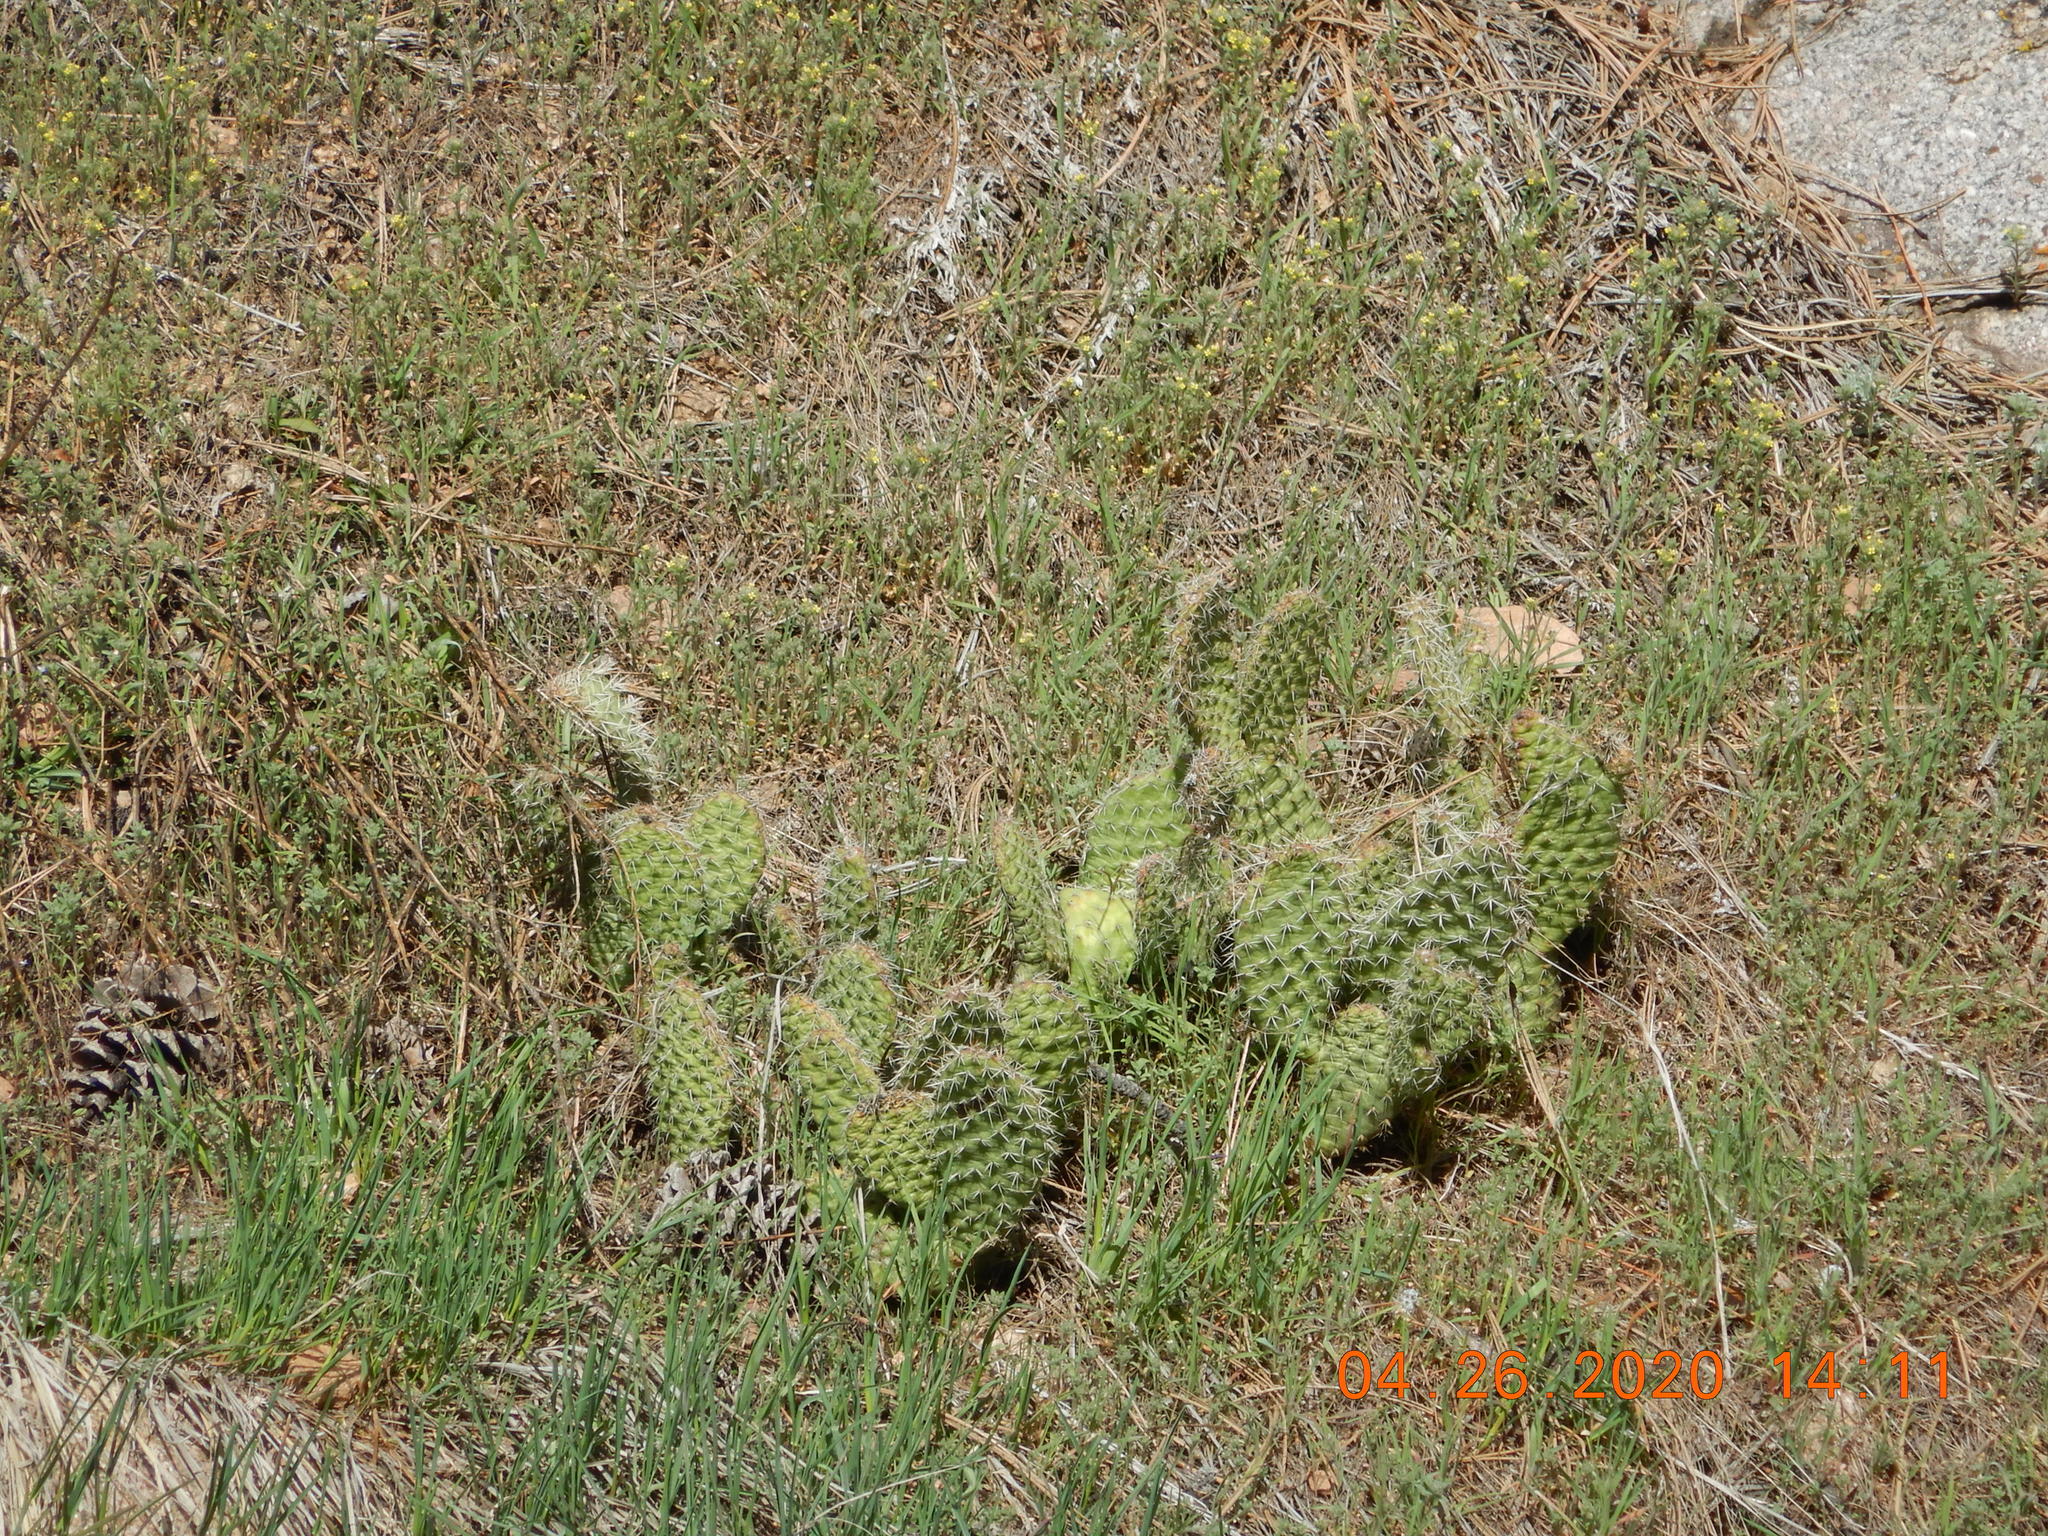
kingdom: Plantae
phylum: Tracheophyta
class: Magnoliopsida
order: Caryophyllales
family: Cactaceae
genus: Opuntia
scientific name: Opuntia polyacantha
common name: Plains prickly-pear
